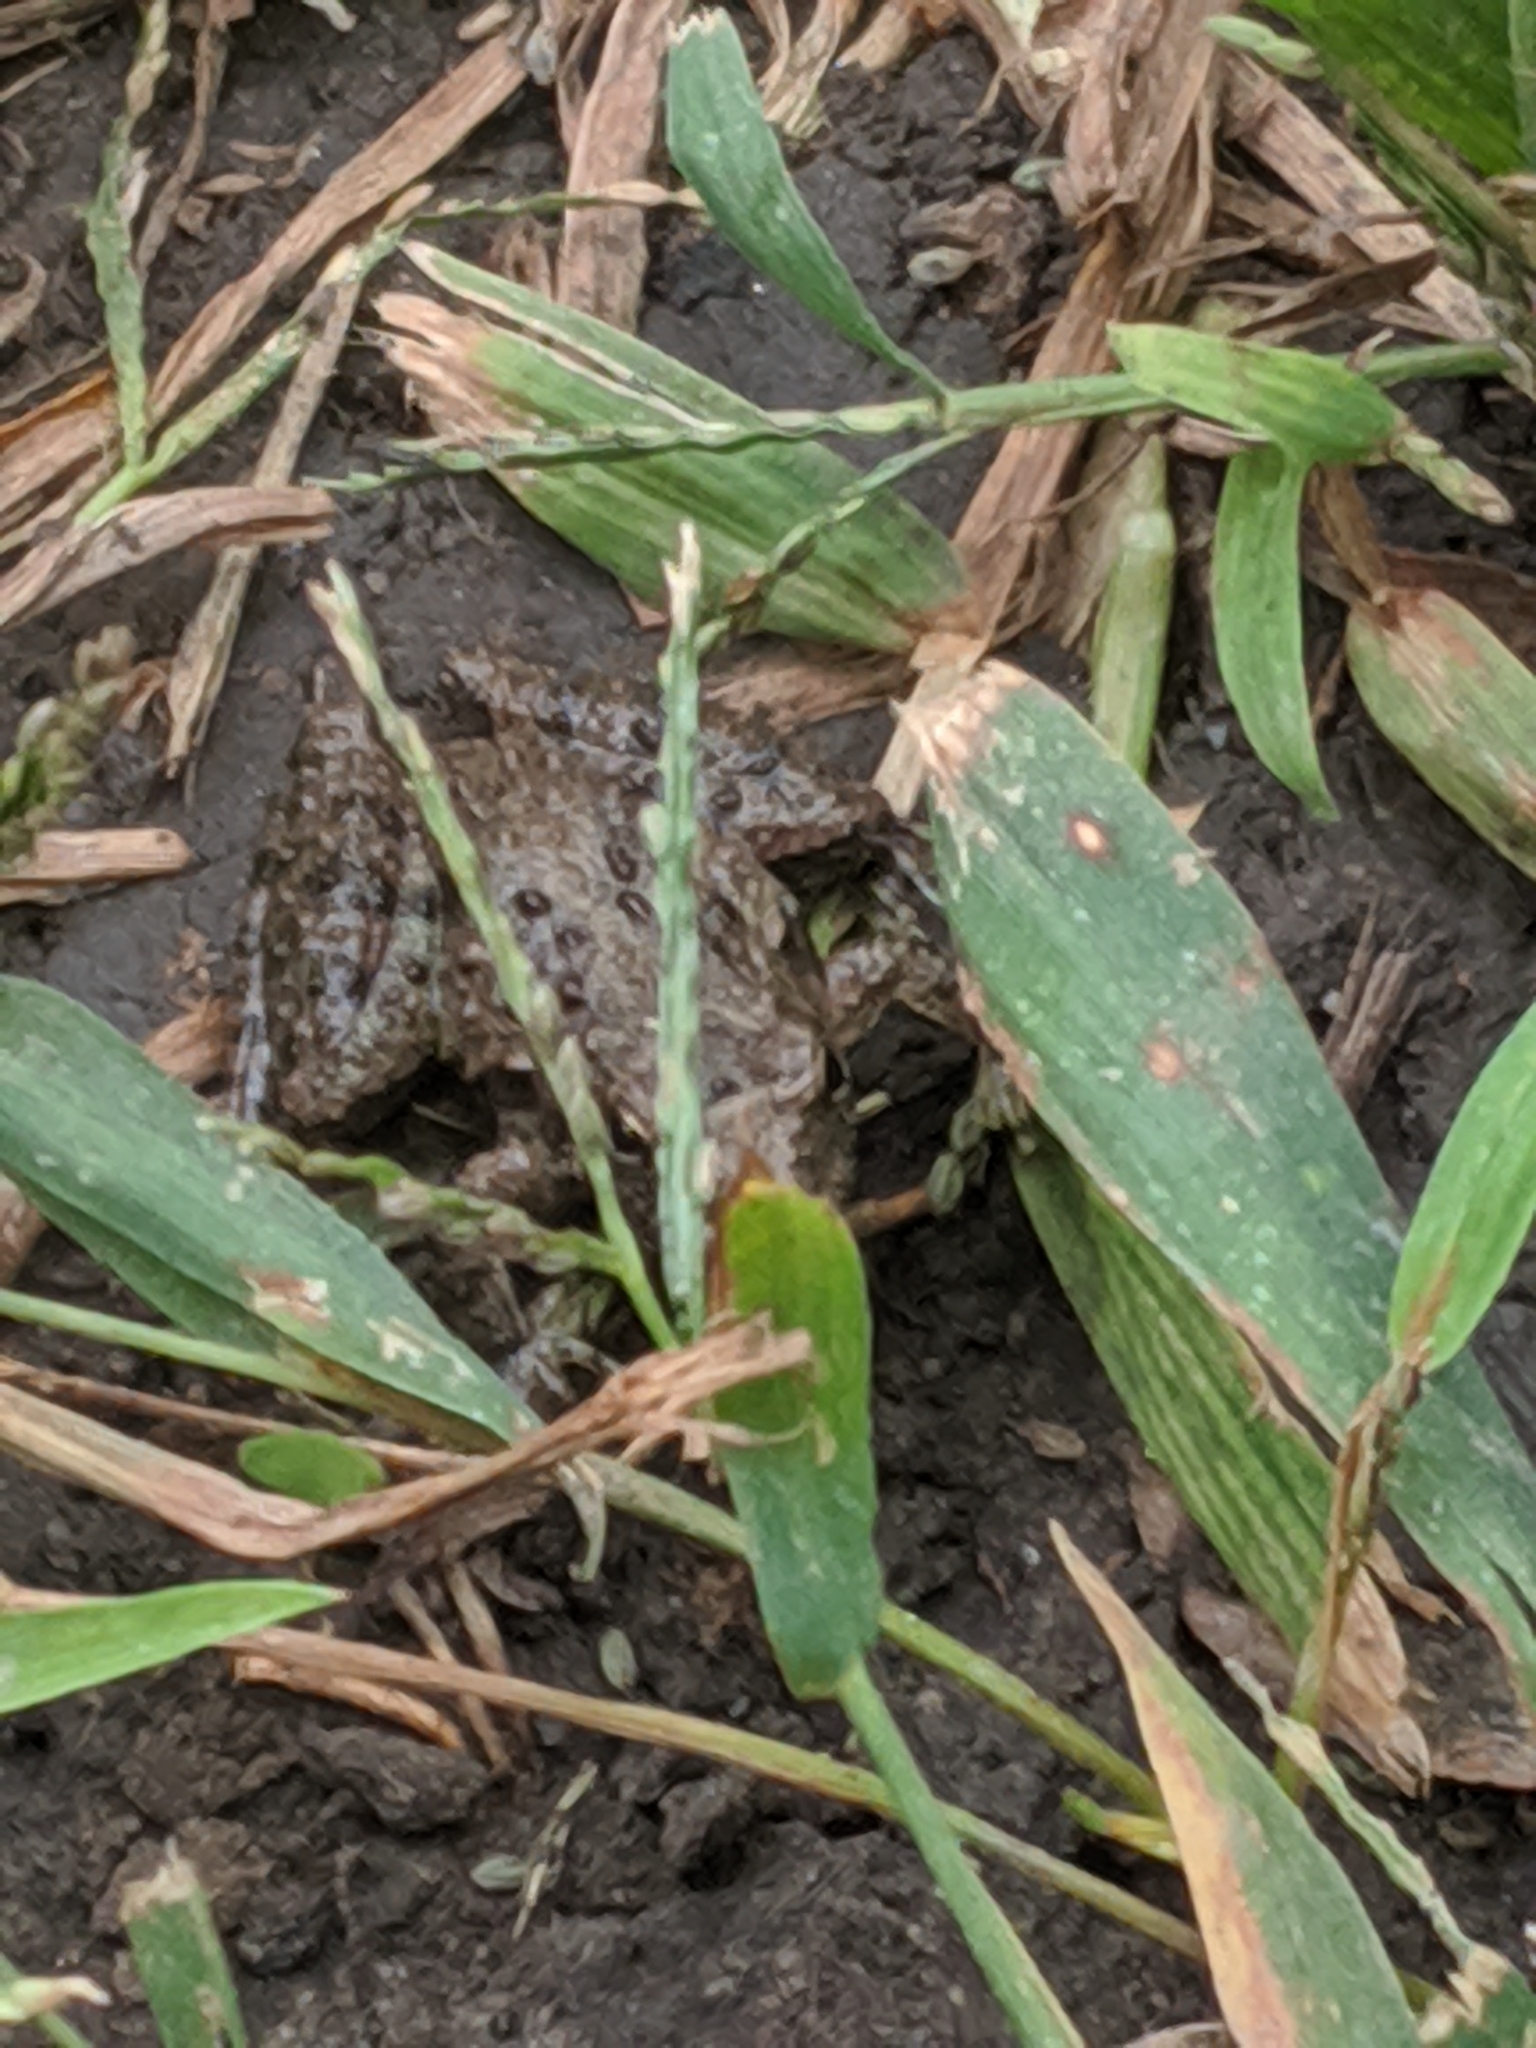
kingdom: Animalia
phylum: Chordata
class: Amphibia
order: Anura
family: Hylidae
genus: Acris
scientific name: Acris blanchardi
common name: Blanchard's cricket frog
